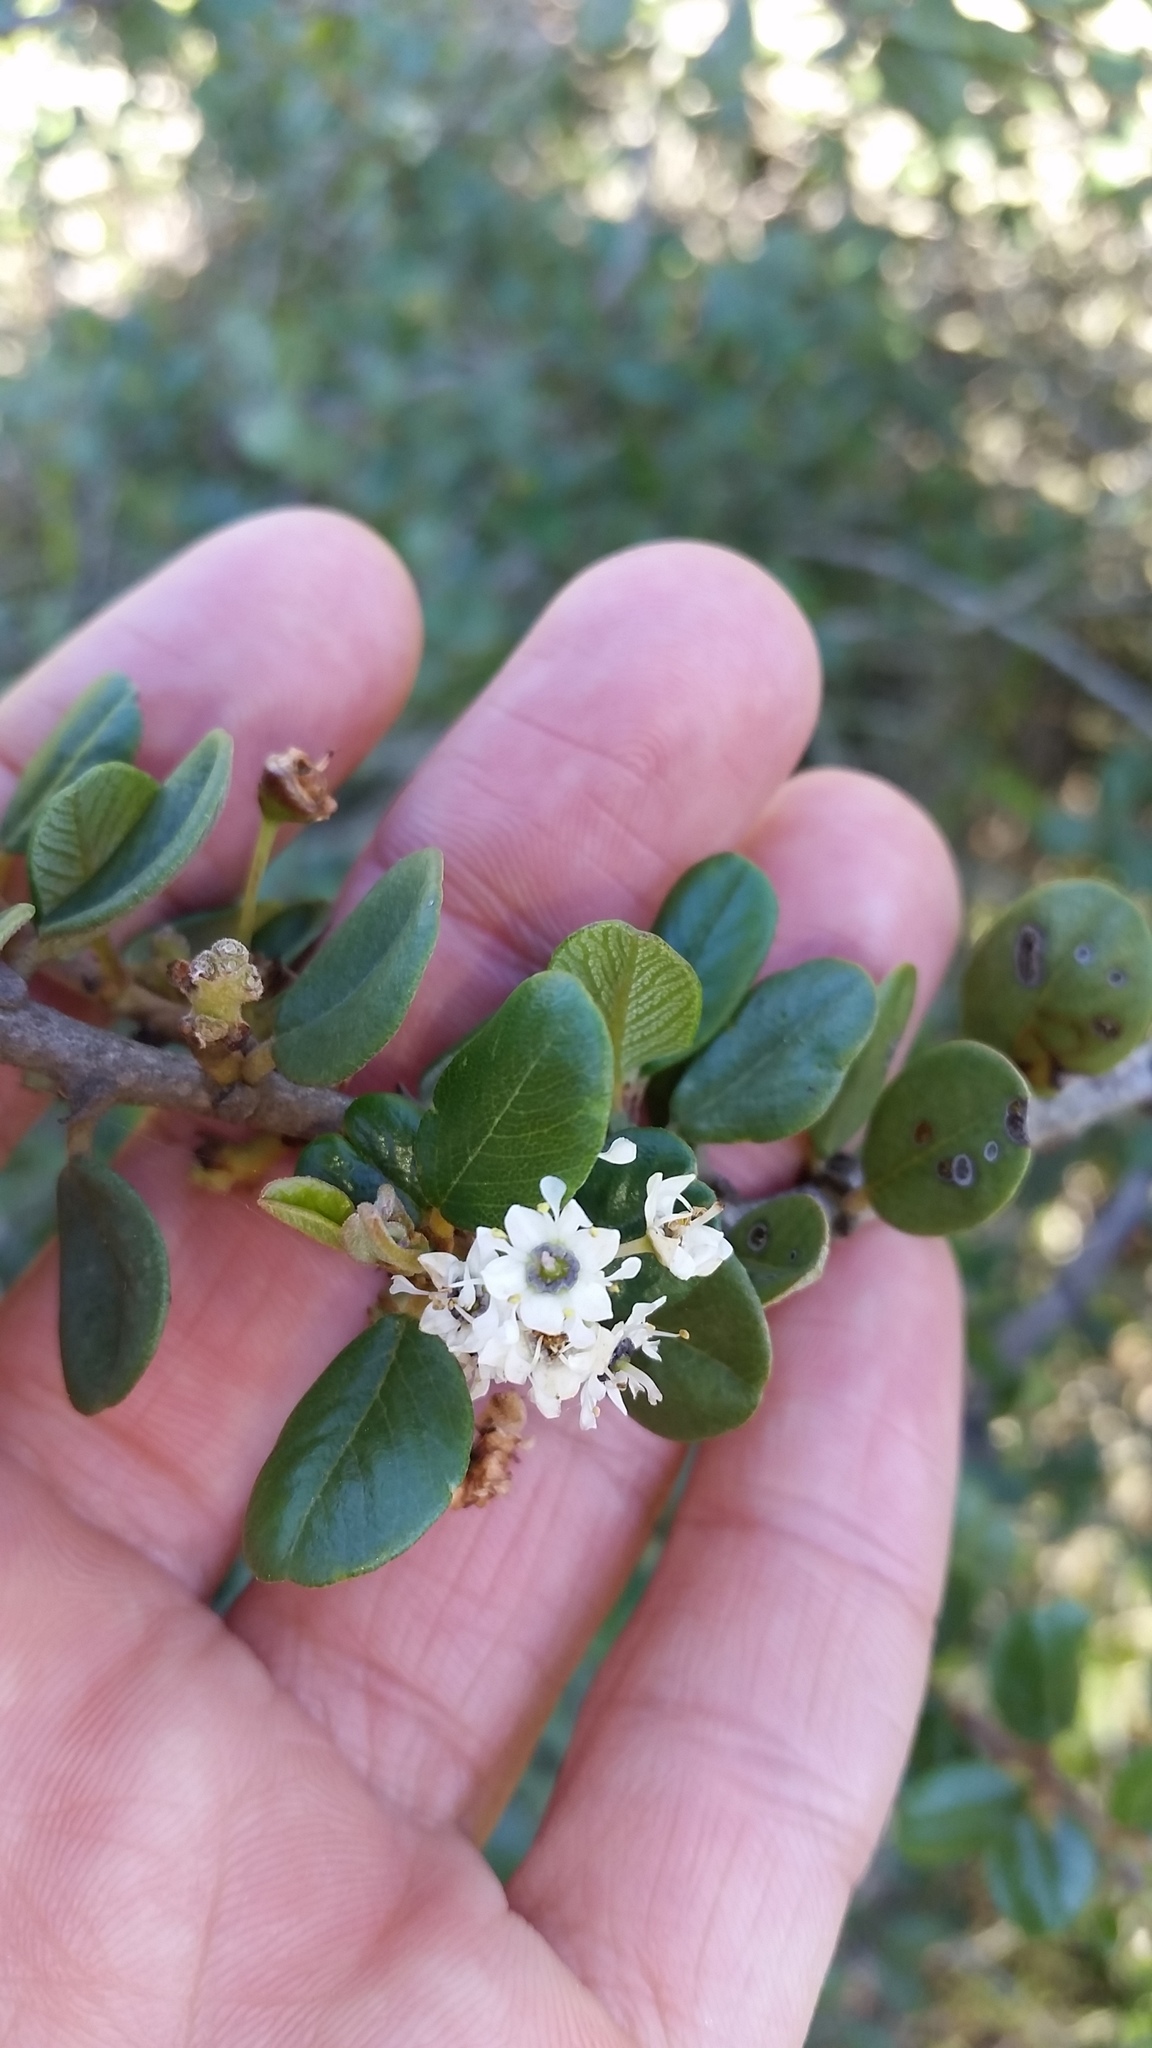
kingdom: Plantae
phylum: Tracheophyta
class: Magnoliopsida
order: Rosales
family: Rhamnaceae
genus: Ceanothus
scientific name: Ceanothus verrucosus
